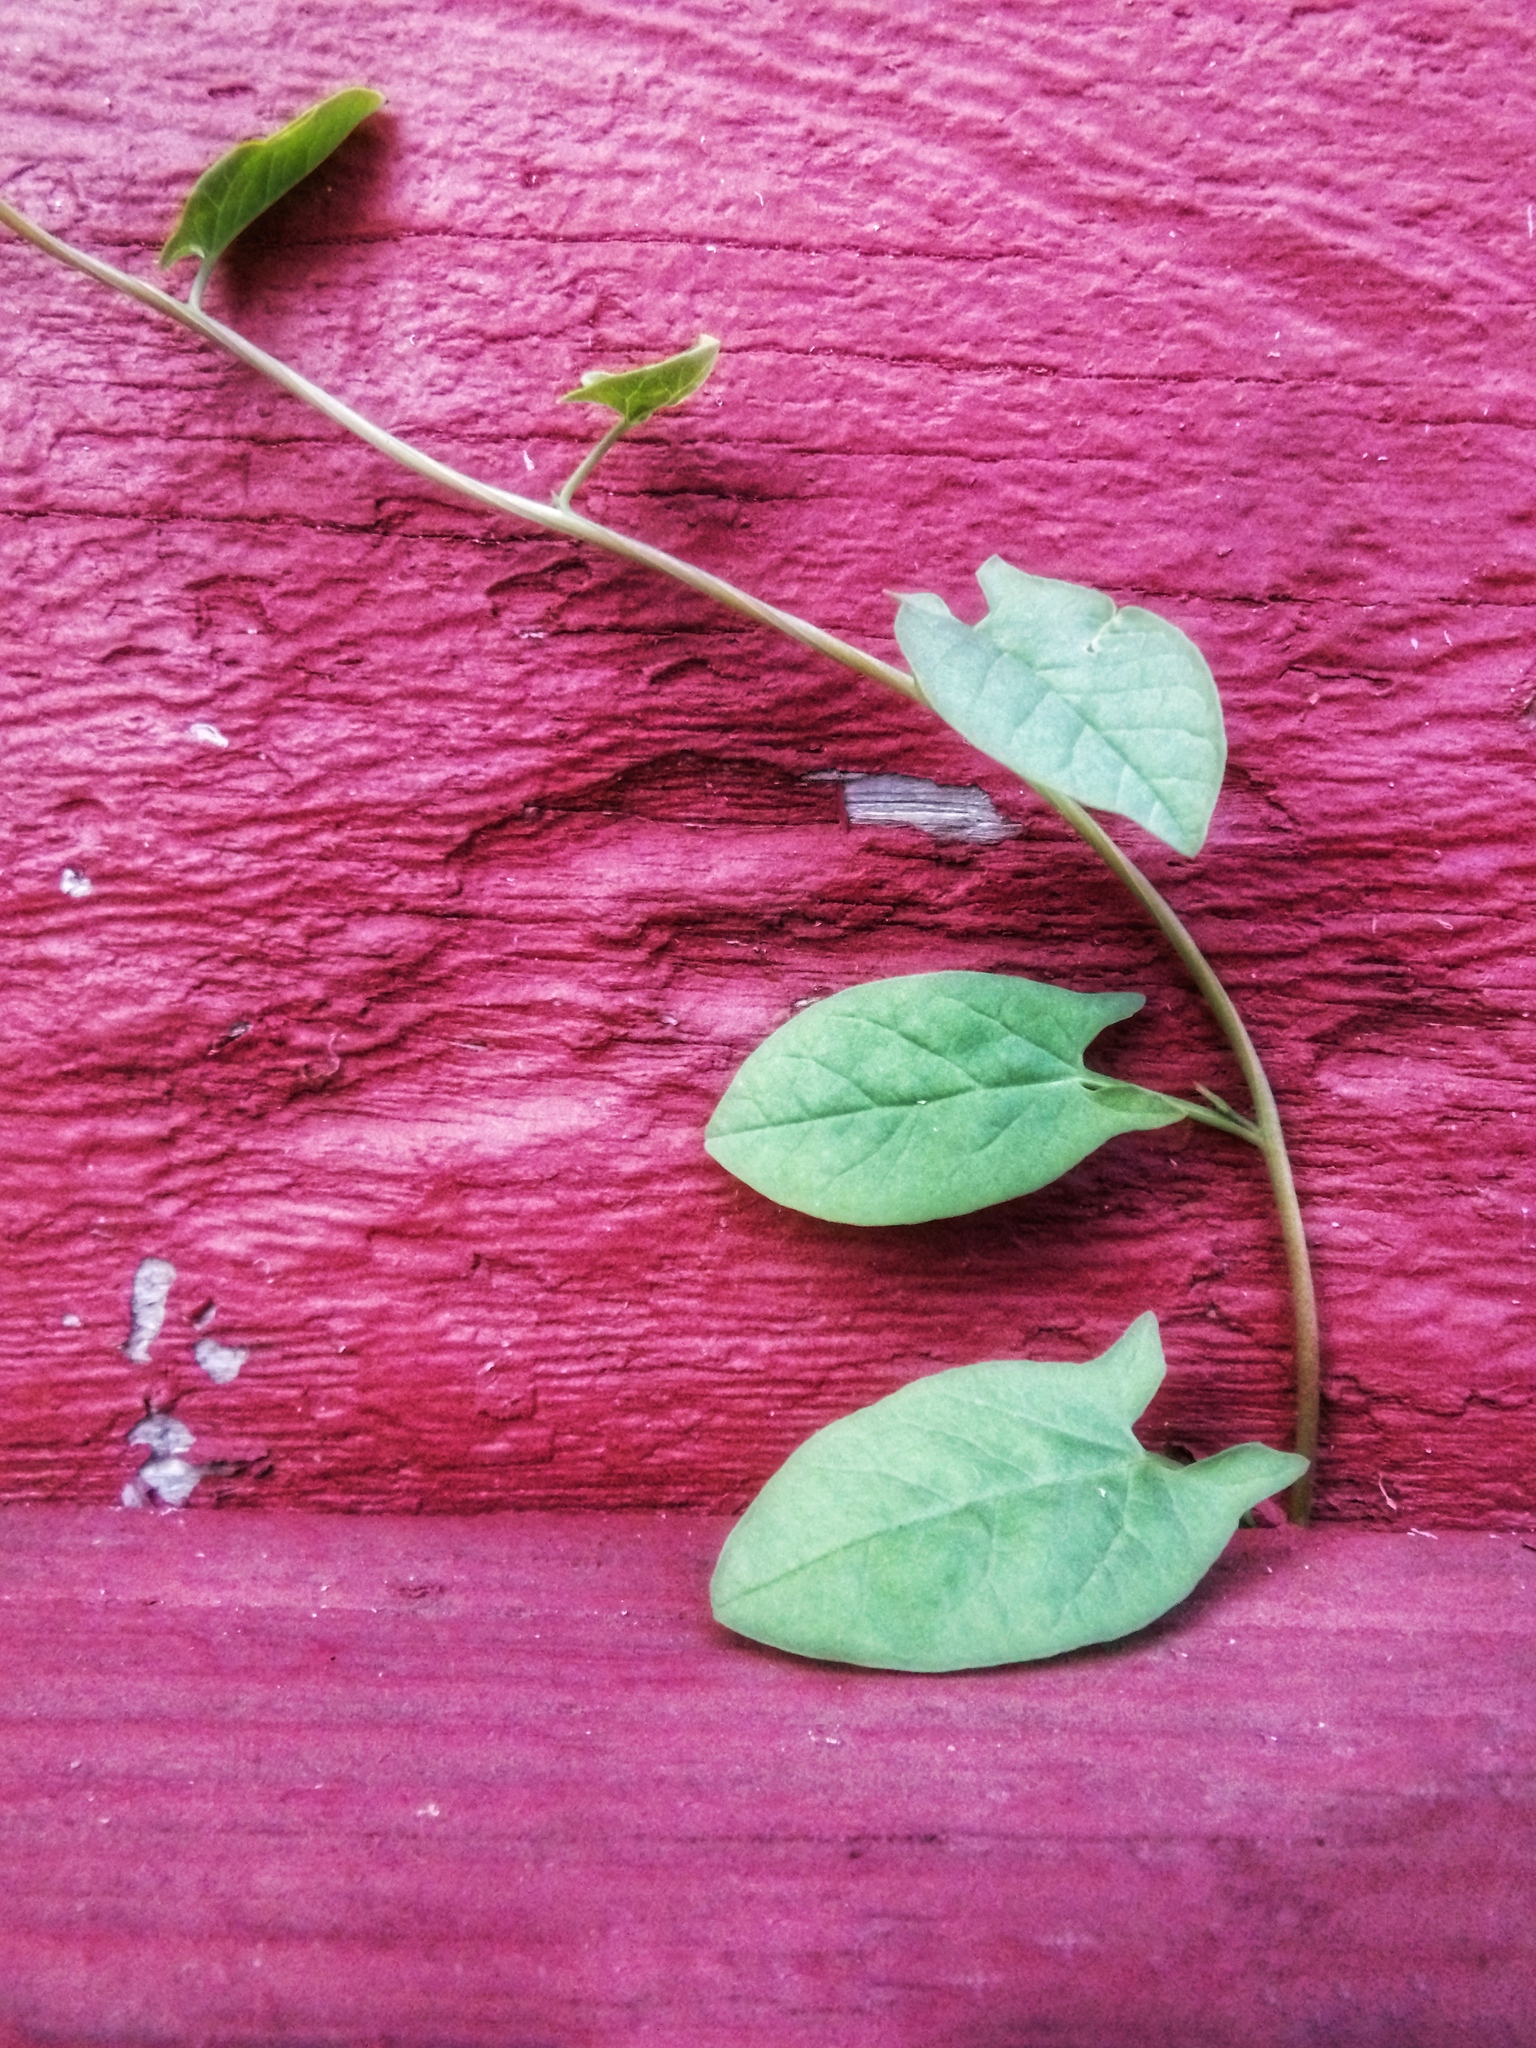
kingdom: Plantae
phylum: Tracheophyta
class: Magnoliopsida
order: Solanales
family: Convolvulaceae
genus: Convolvulus
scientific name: Convolvulus arvensis
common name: Field bindweed
